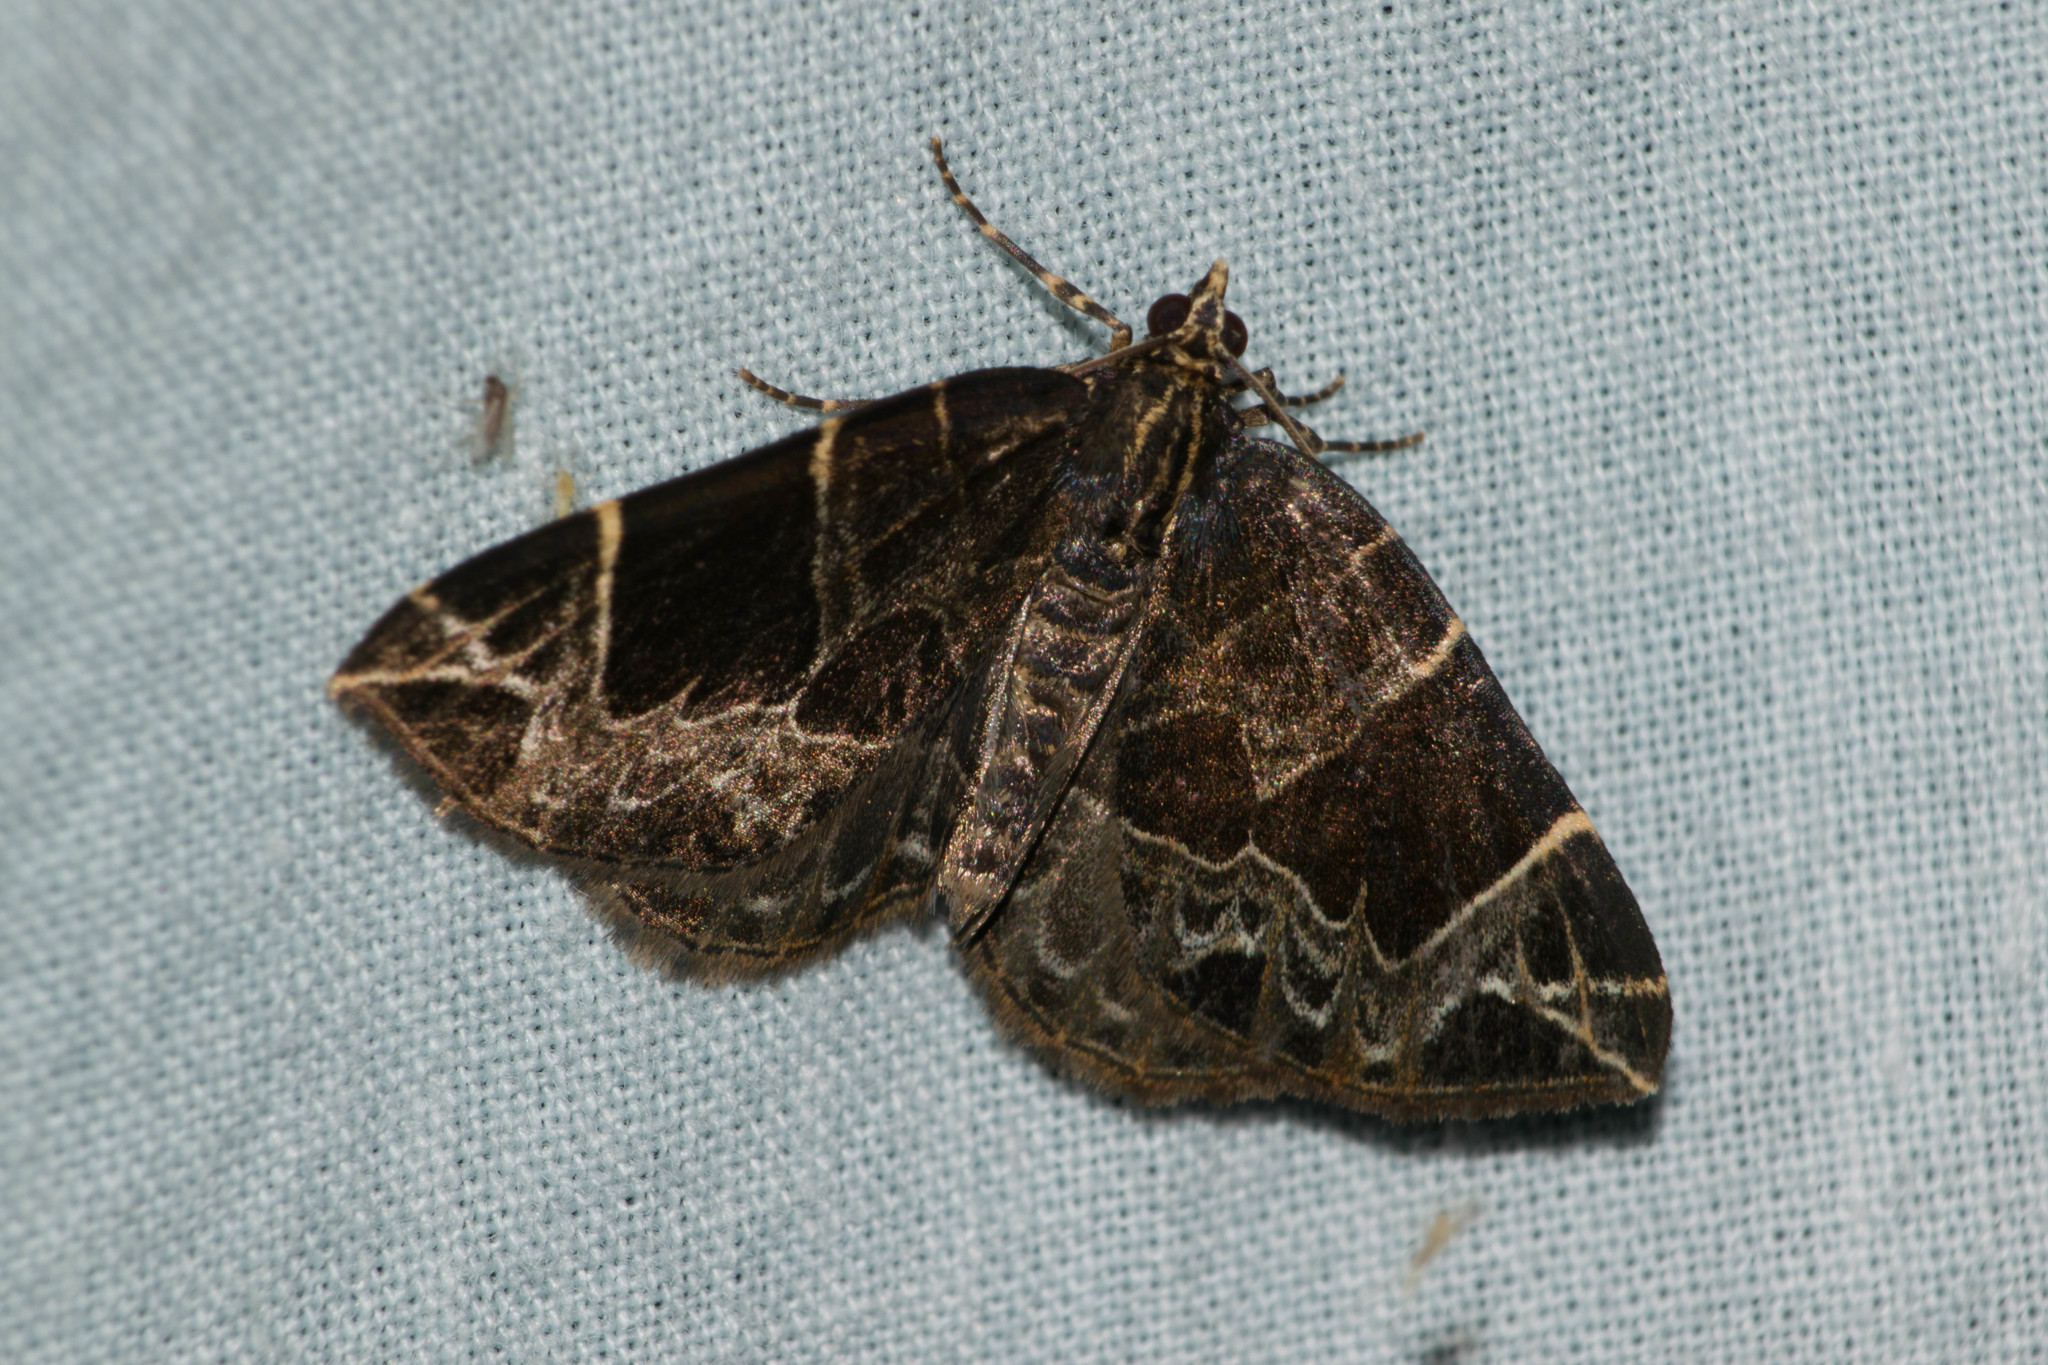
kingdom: Animalia
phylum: Arthropoda
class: Insecta
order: Lepidoptera
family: Geometridae
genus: Ecliptopera
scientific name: Ecliptopera atricolorata
